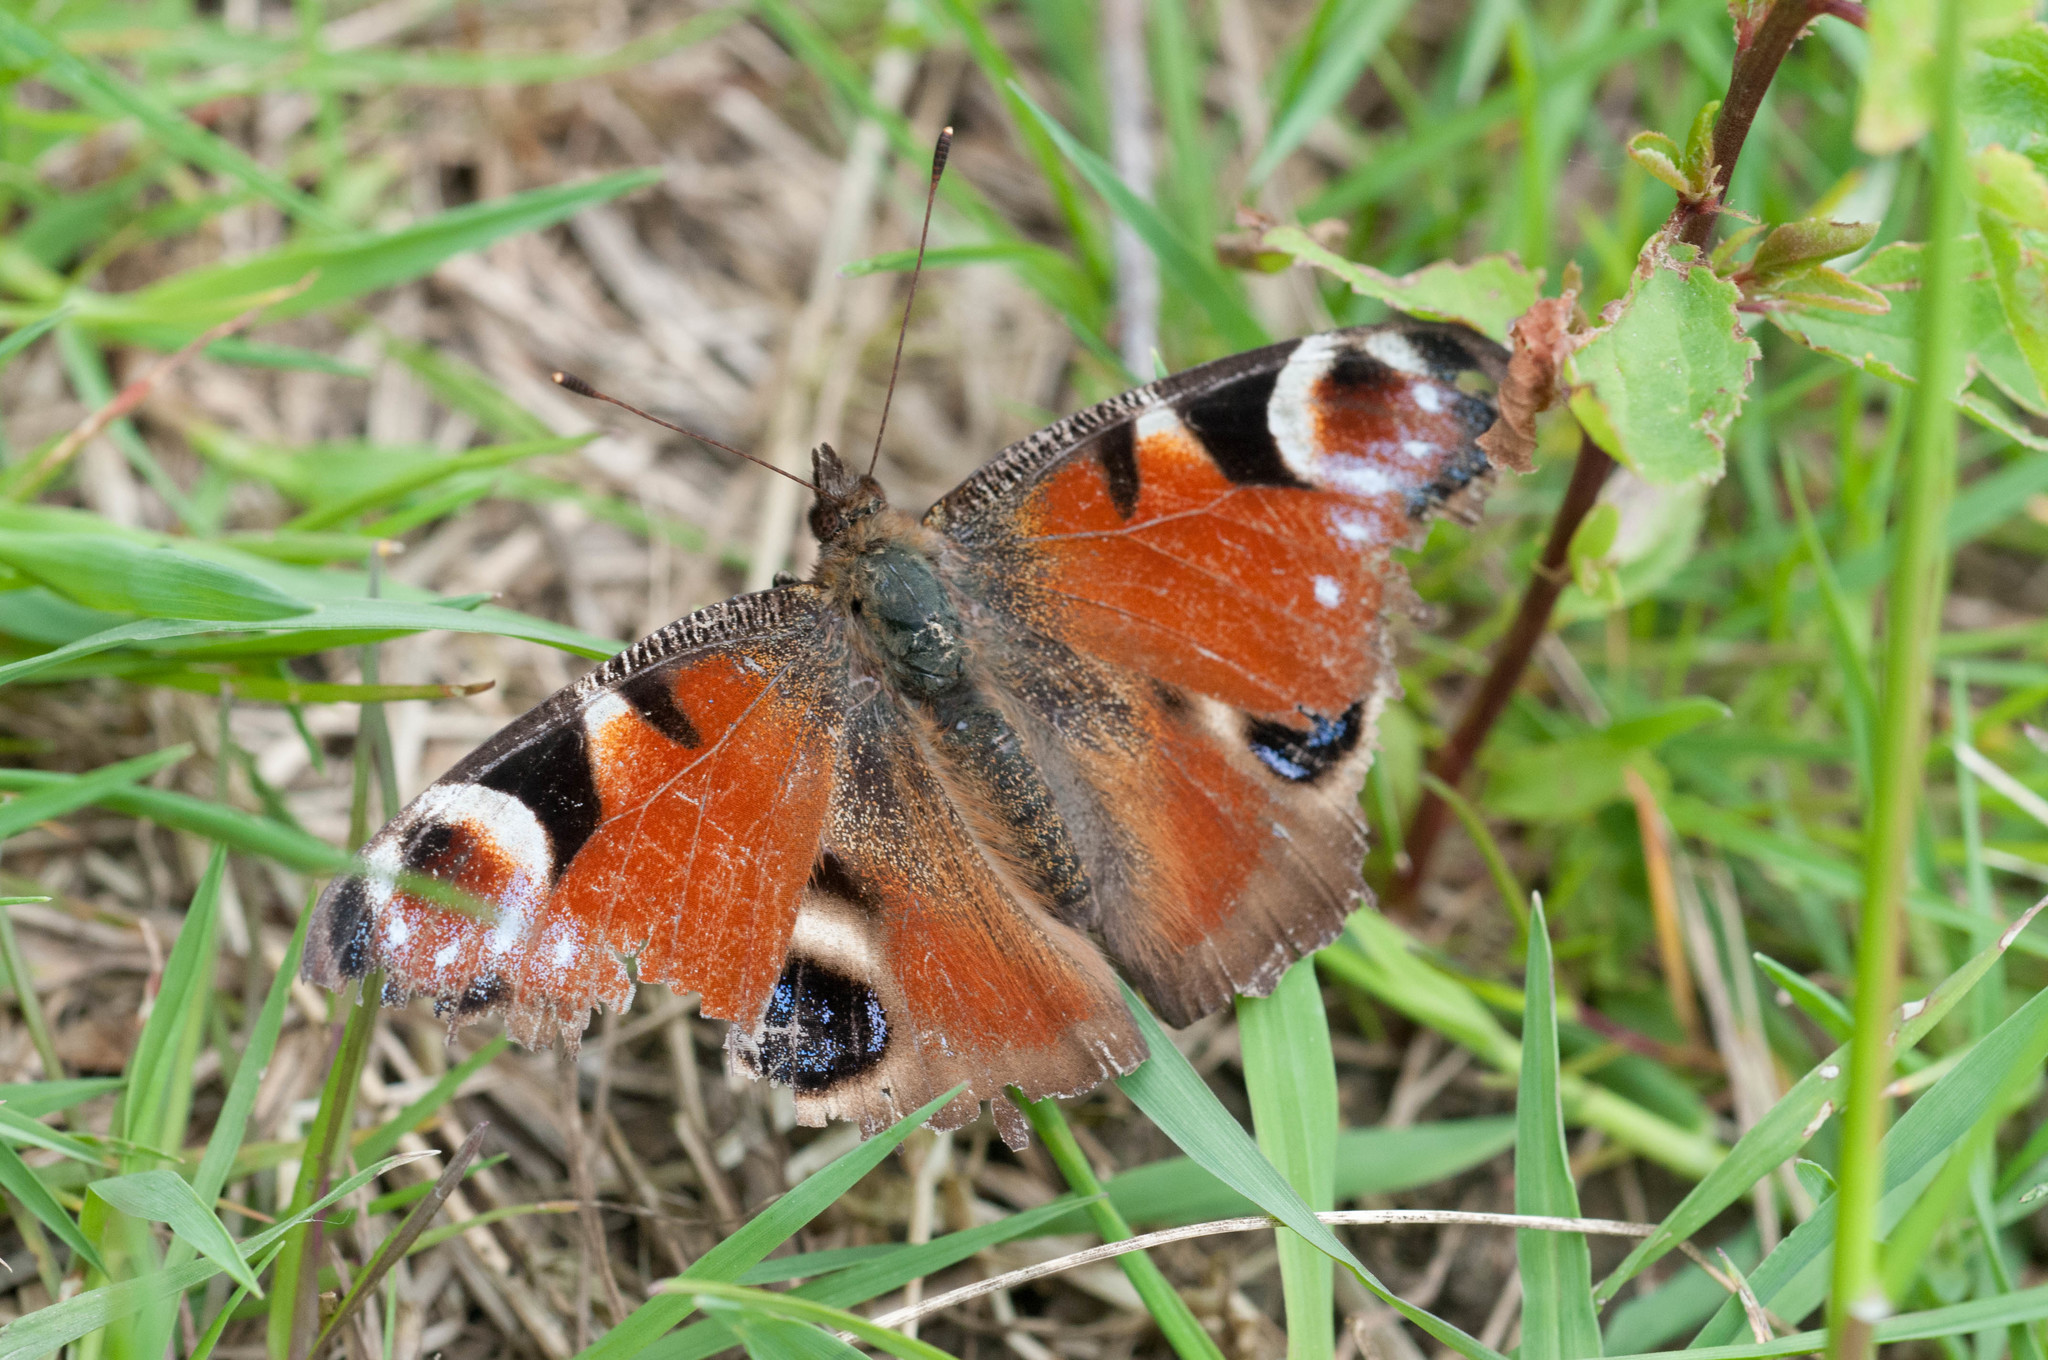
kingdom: Animalia
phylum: Arthropoda
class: Insecta
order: Lepidoptera
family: Nymphalidae
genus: Aglais
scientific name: Aglais io
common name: Peacock
